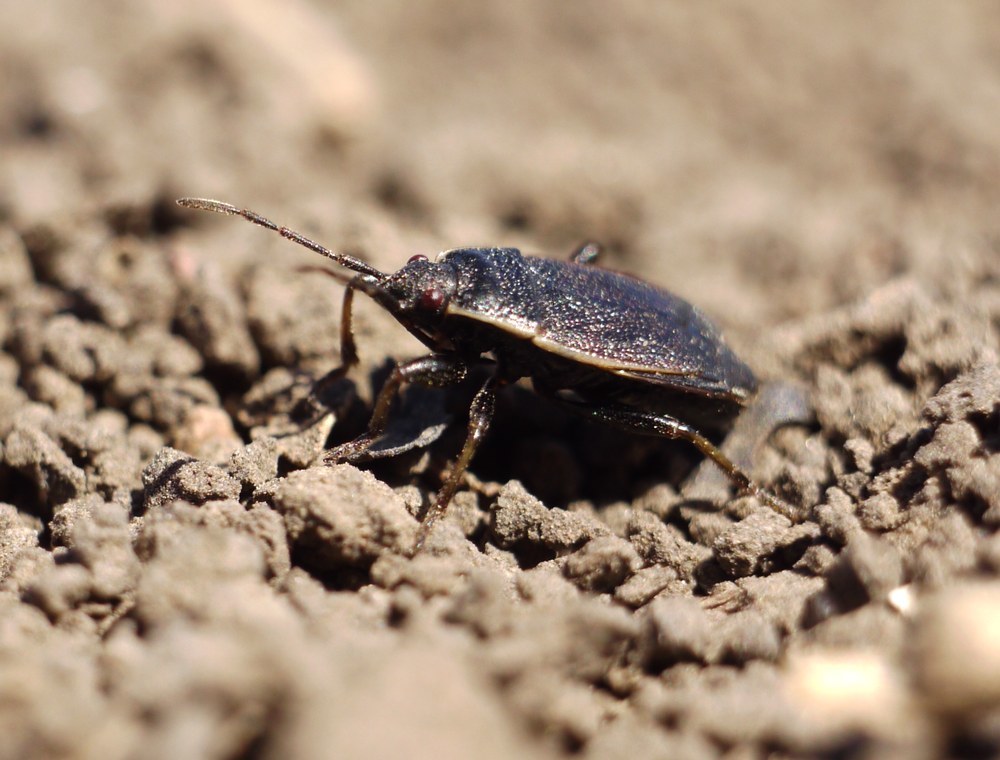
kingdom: Animalia
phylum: Arthropoda
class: Insecta
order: Hemiptera
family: Pyrrhocoridae
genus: Pyrrhocoris
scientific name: Pyrrhocoris marginatus
